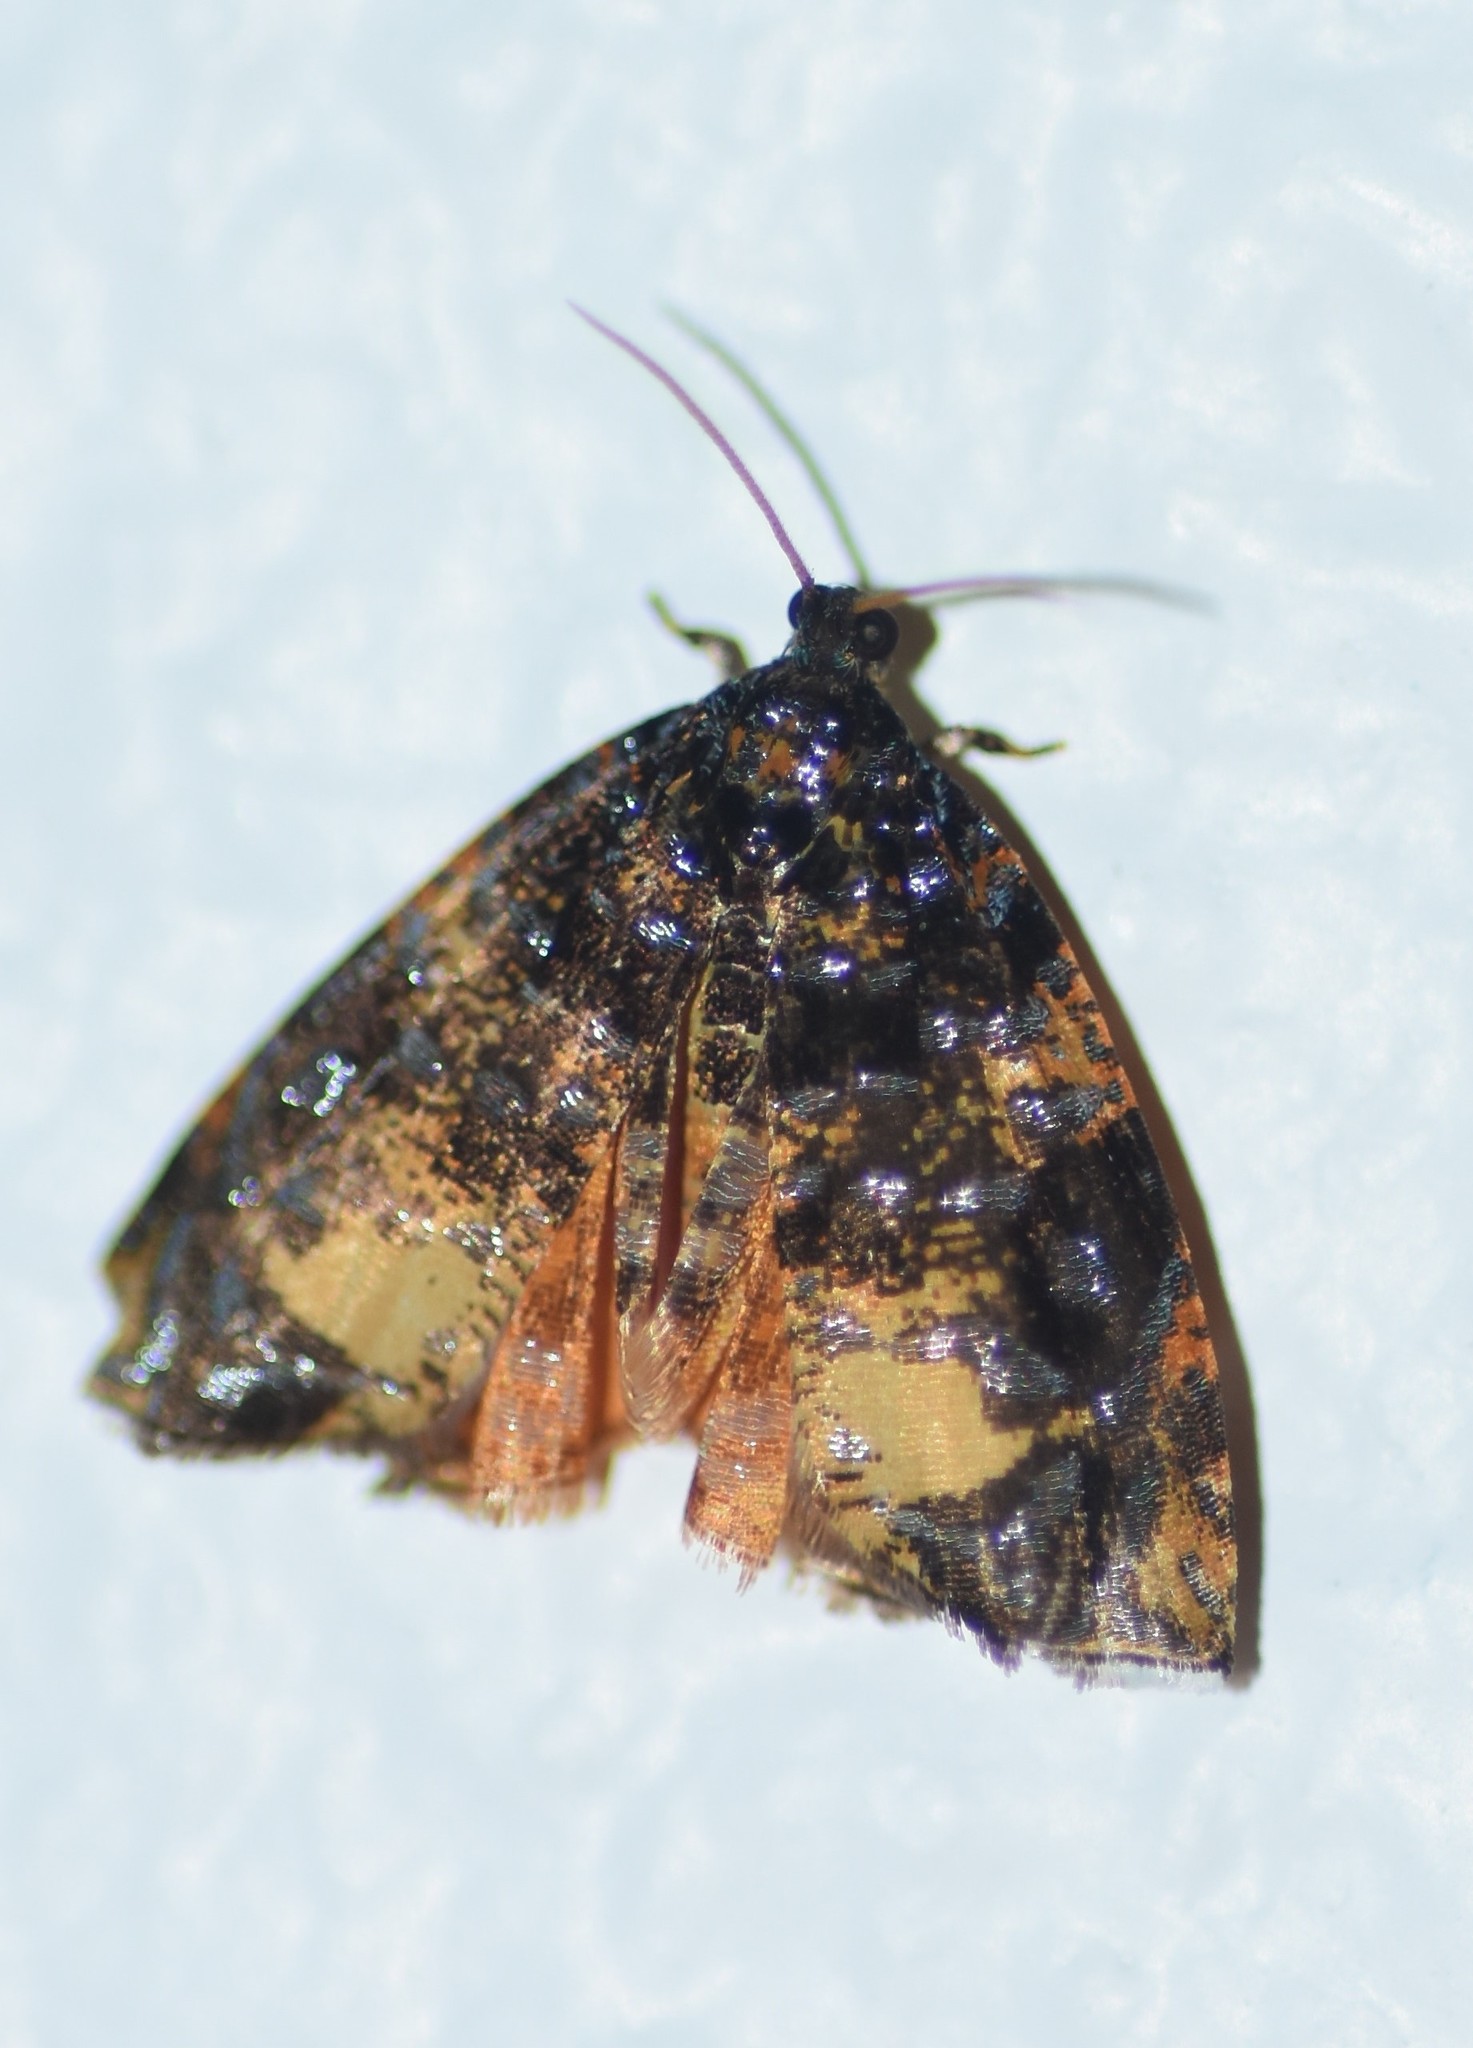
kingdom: Animalia
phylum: Arthropoda
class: Insecta
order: Lepidoptera
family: Tortricidae
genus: Mictopsichia
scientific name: Mictopsichia hubneriana
